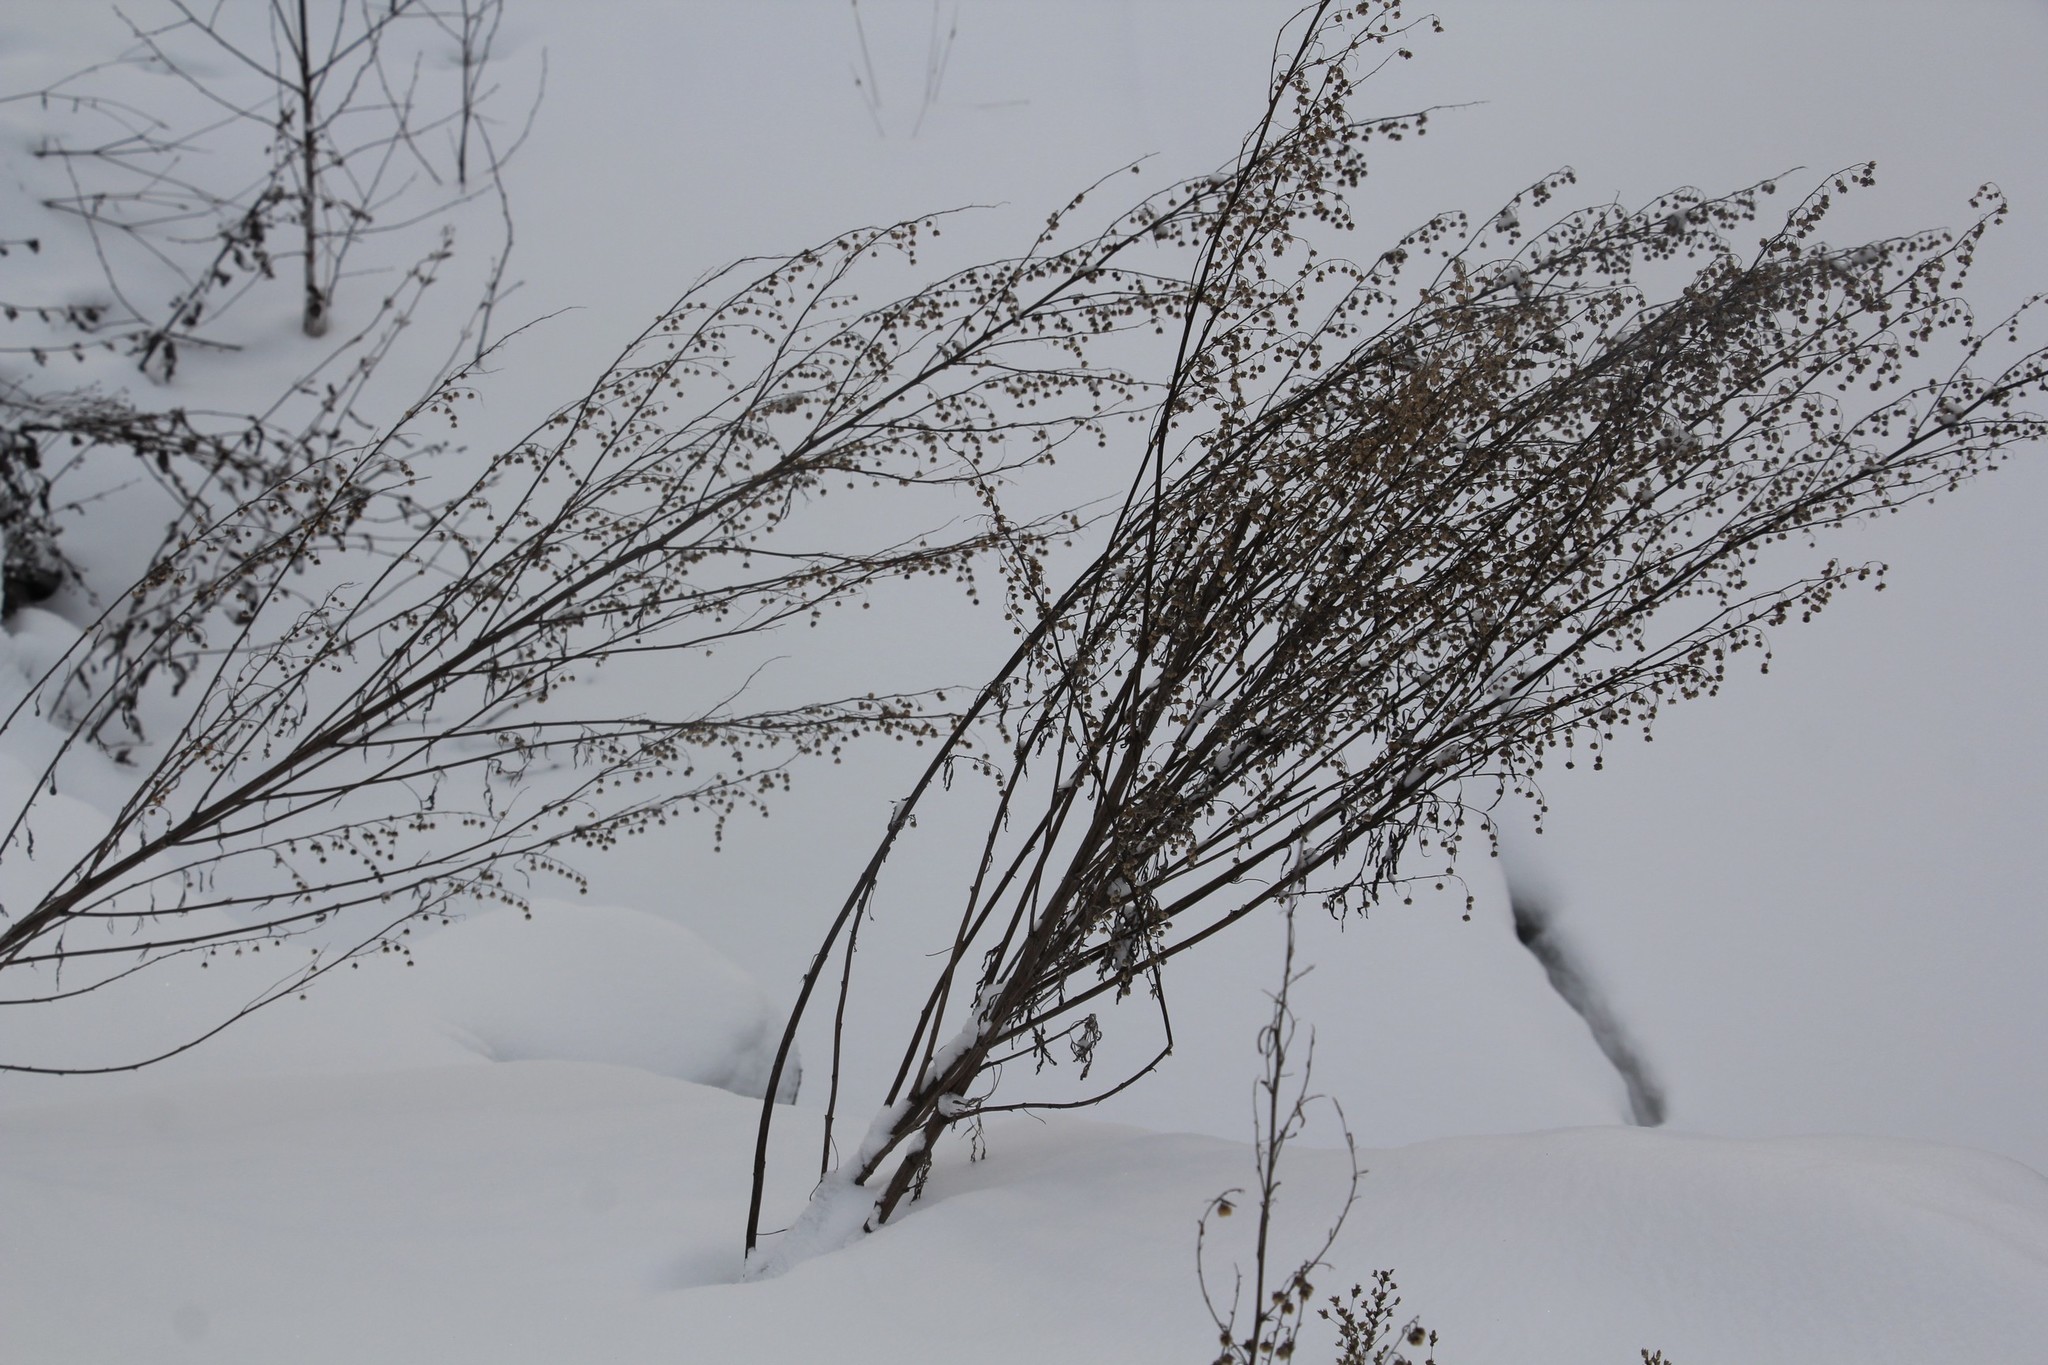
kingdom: Plantae
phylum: Tracheophyta
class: Magnoliopsida
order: Asterales
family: Asteraceae
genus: Artemisia
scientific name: Artemisia sieversiana
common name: Sieversian wormwood
